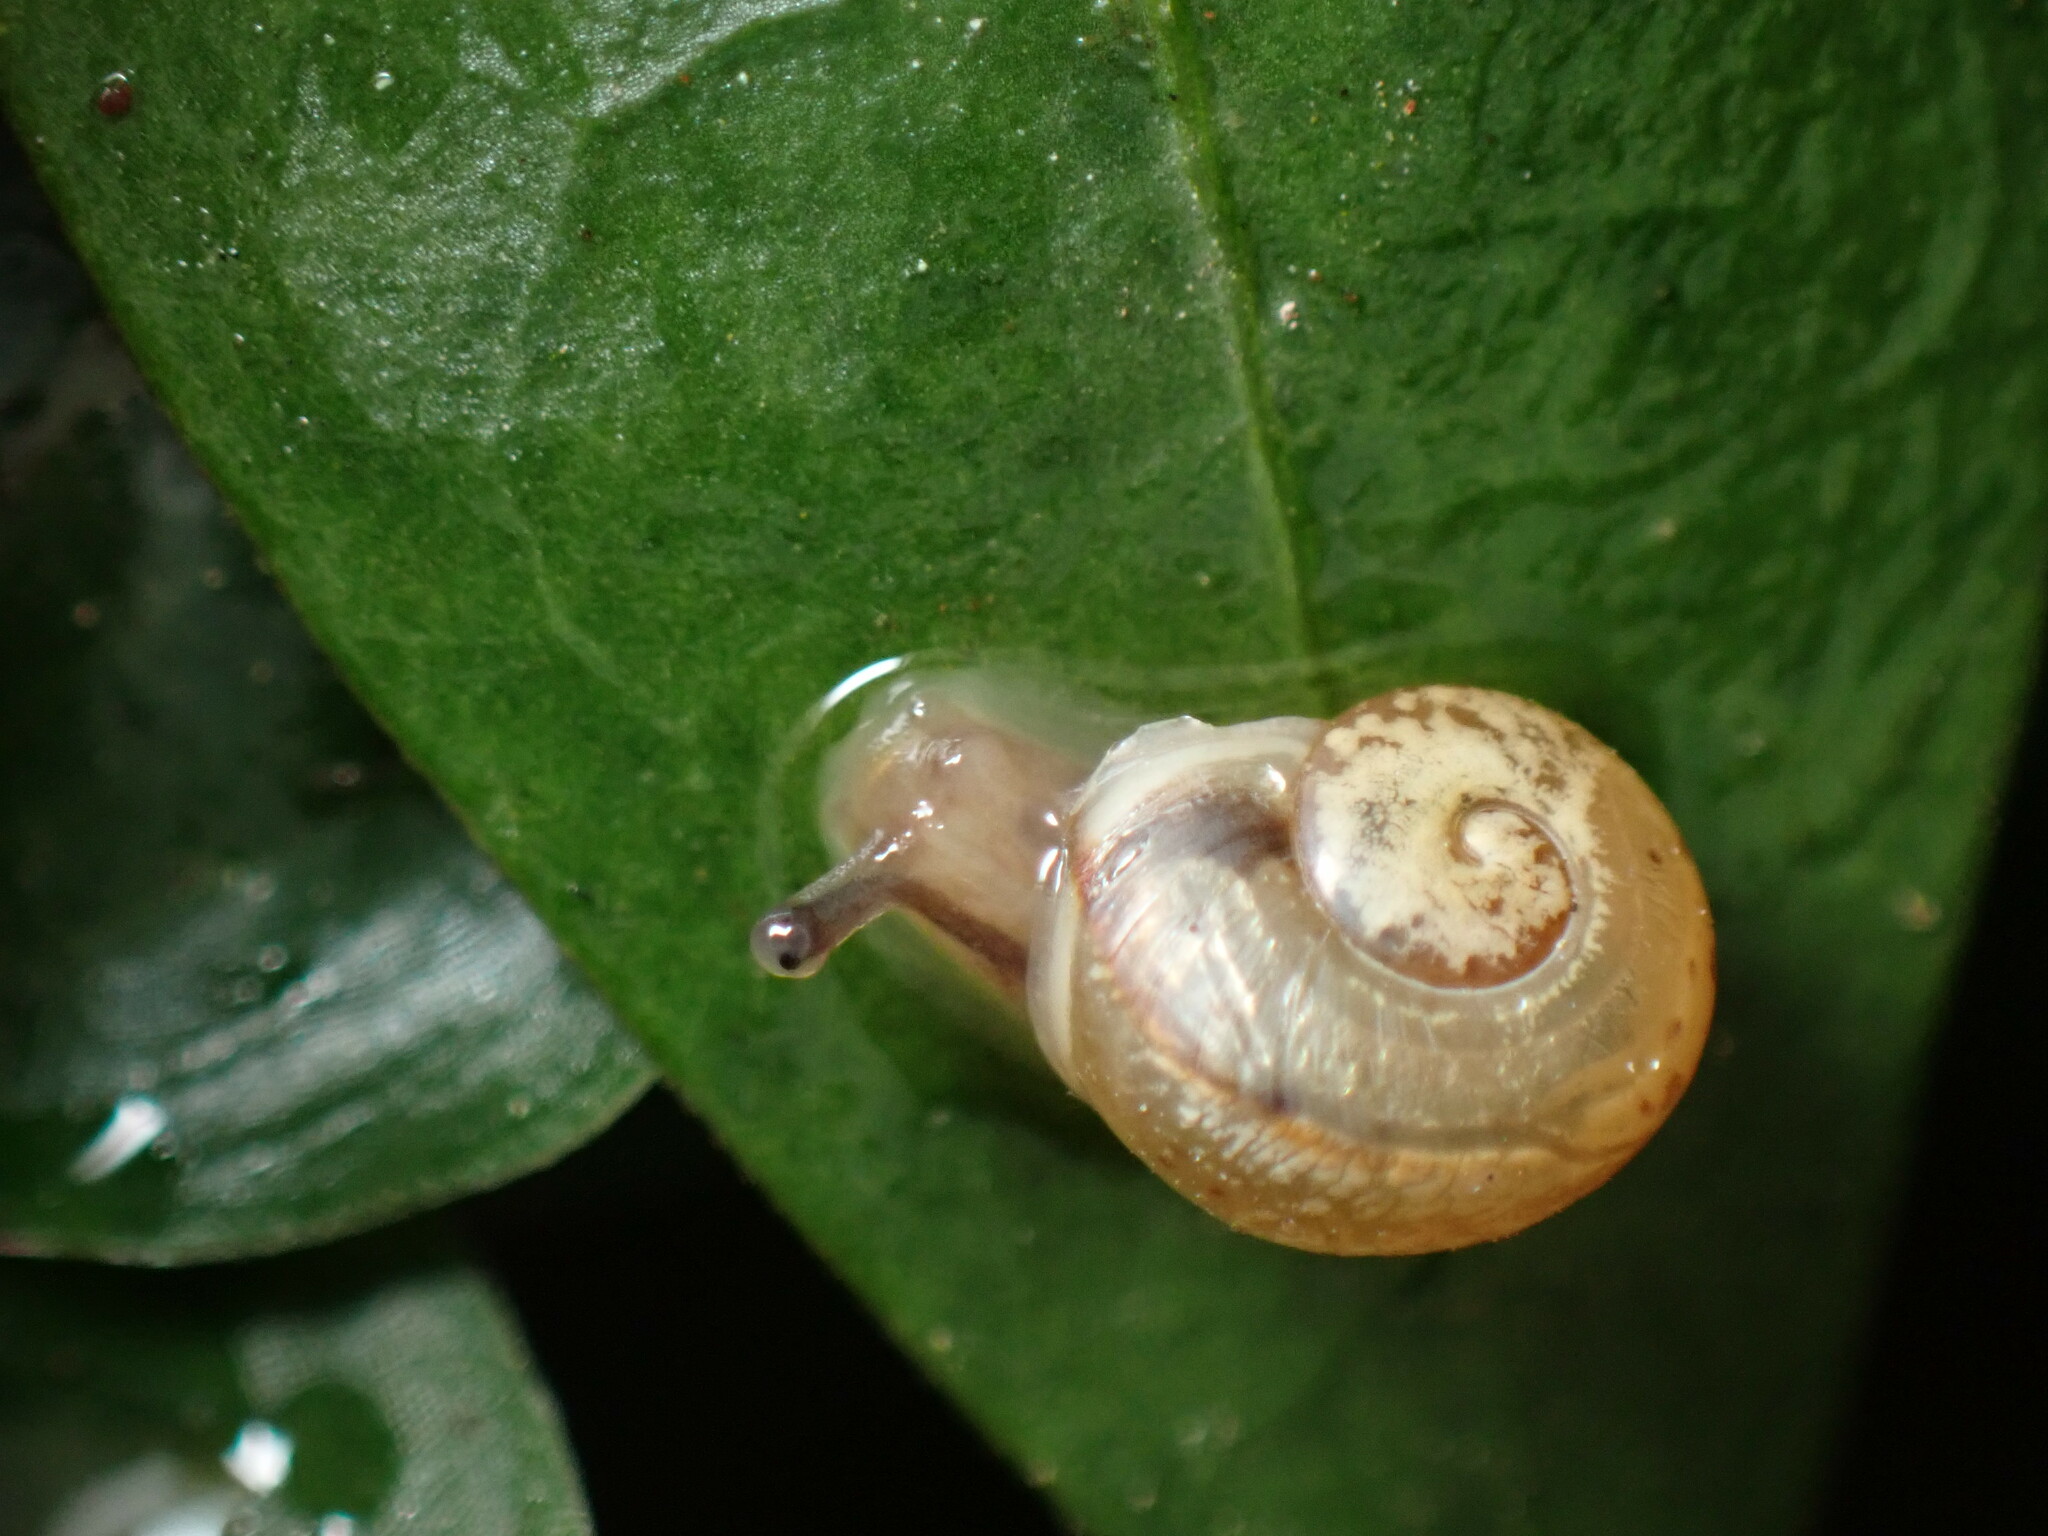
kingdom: Animalia
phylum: Mollusca
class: Gastropoda
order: Stylommatophora
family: Hygromiidae
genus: Portugala
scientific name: Portugala inchoata
